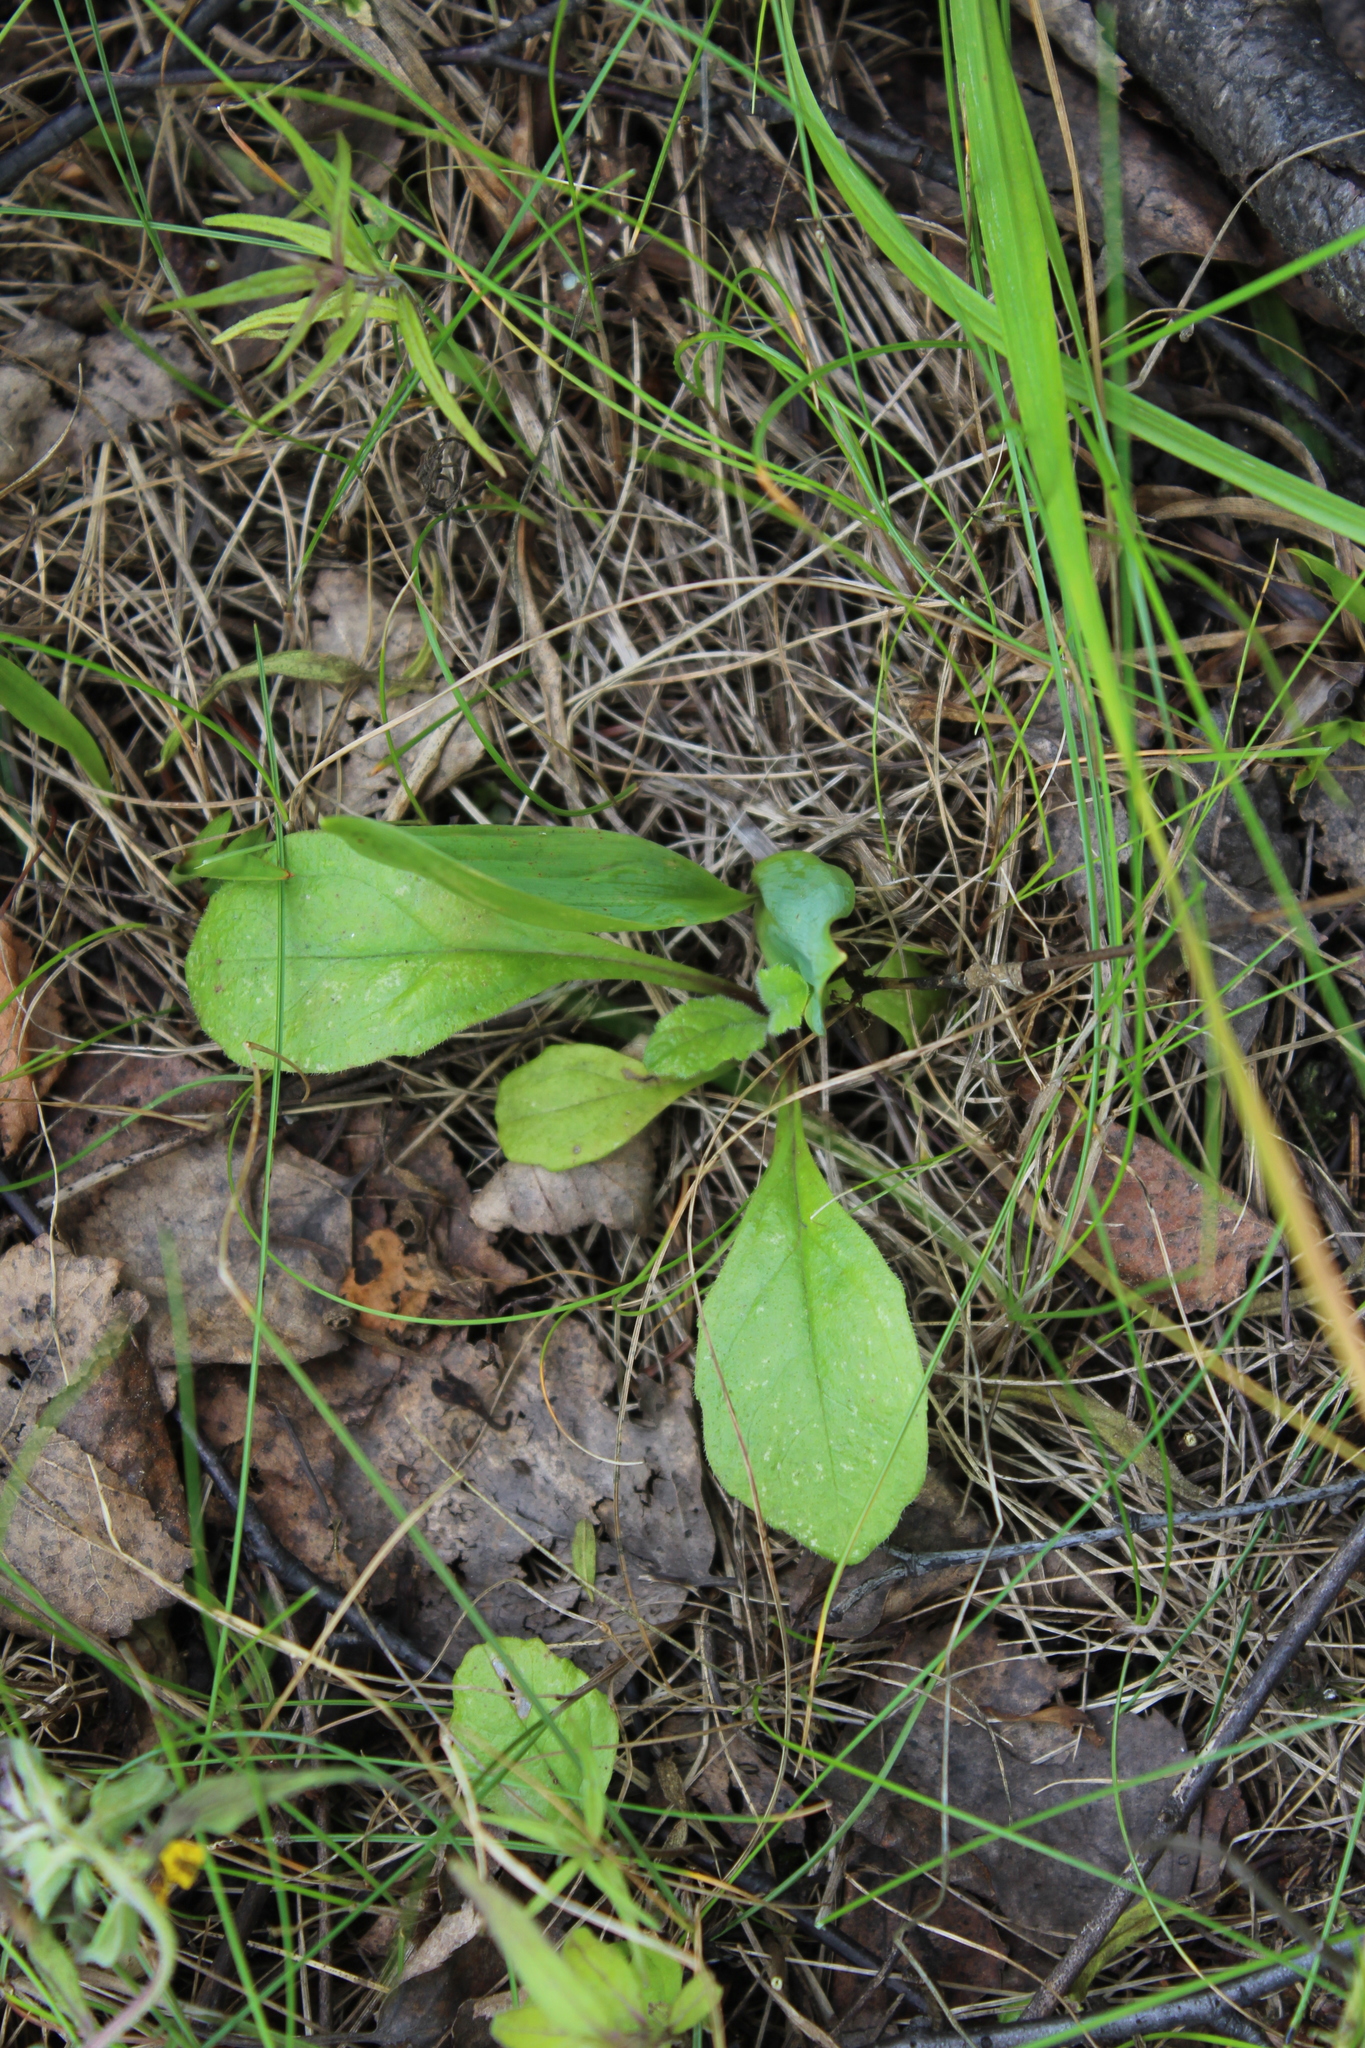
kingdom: Plantae
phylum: Tracheophyta
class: Magnoliopsida
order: Lamiales
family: Lamiaceae
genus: Ajuga
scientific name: Ajuga reptans
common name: Bugle
